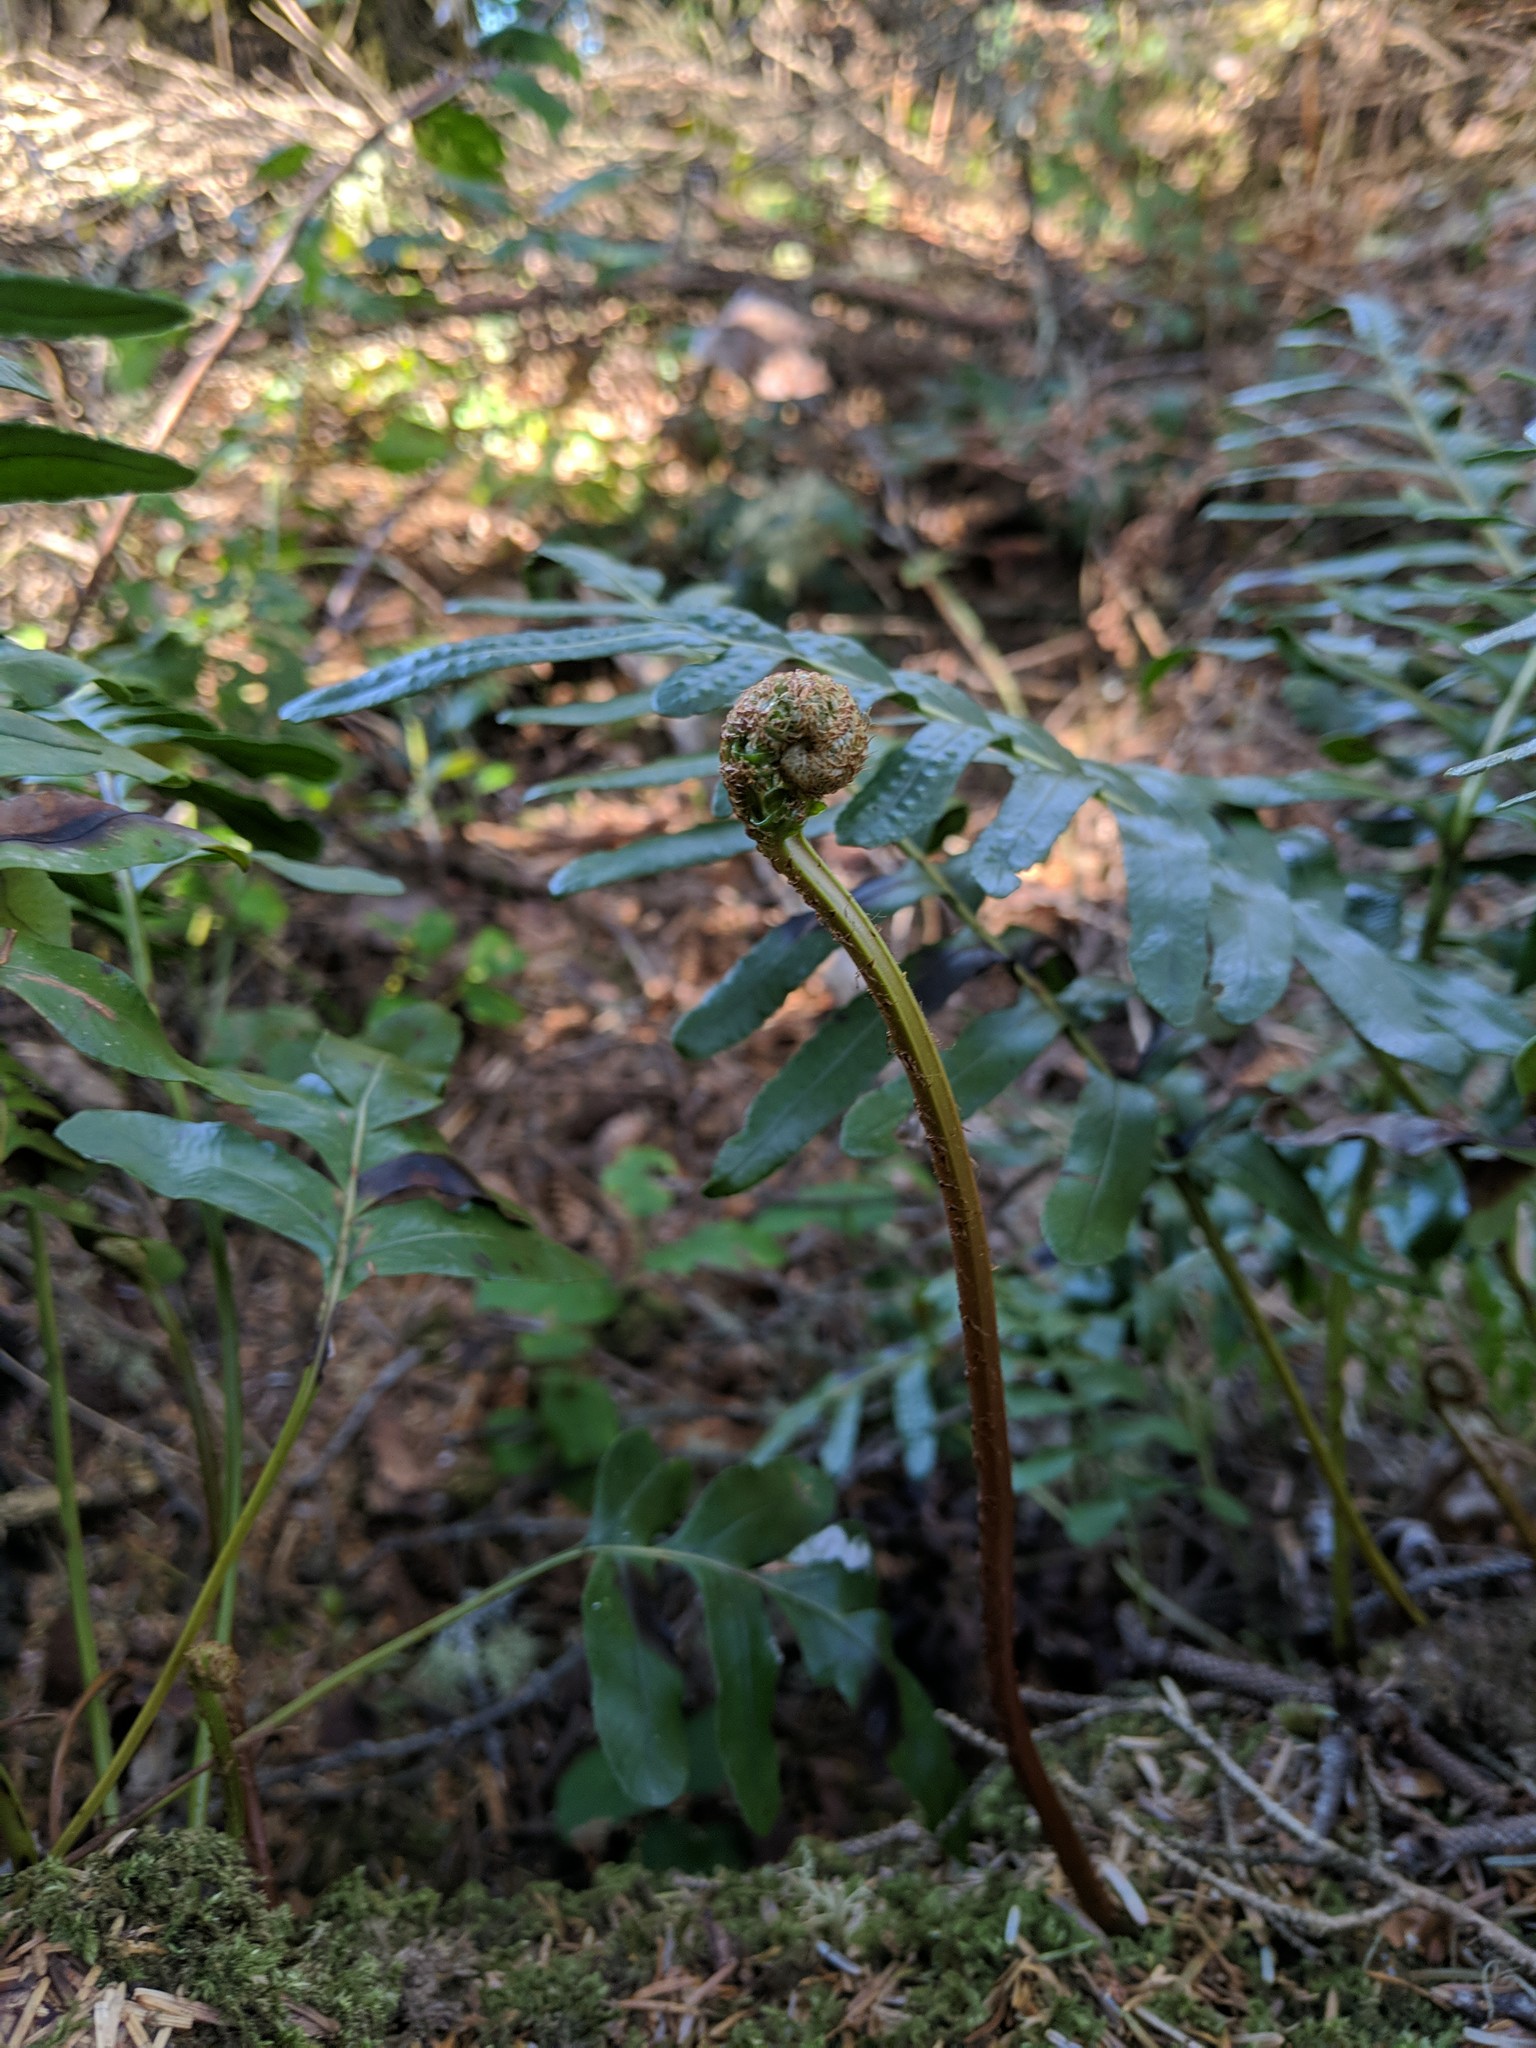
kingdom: Plantae
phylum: Tracheophyta
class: Polypodiopsida
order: Polypodiales
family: Polypodiaceae
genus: Polypodium
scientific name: Polypodium scouleri
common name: Scouler's polypody
